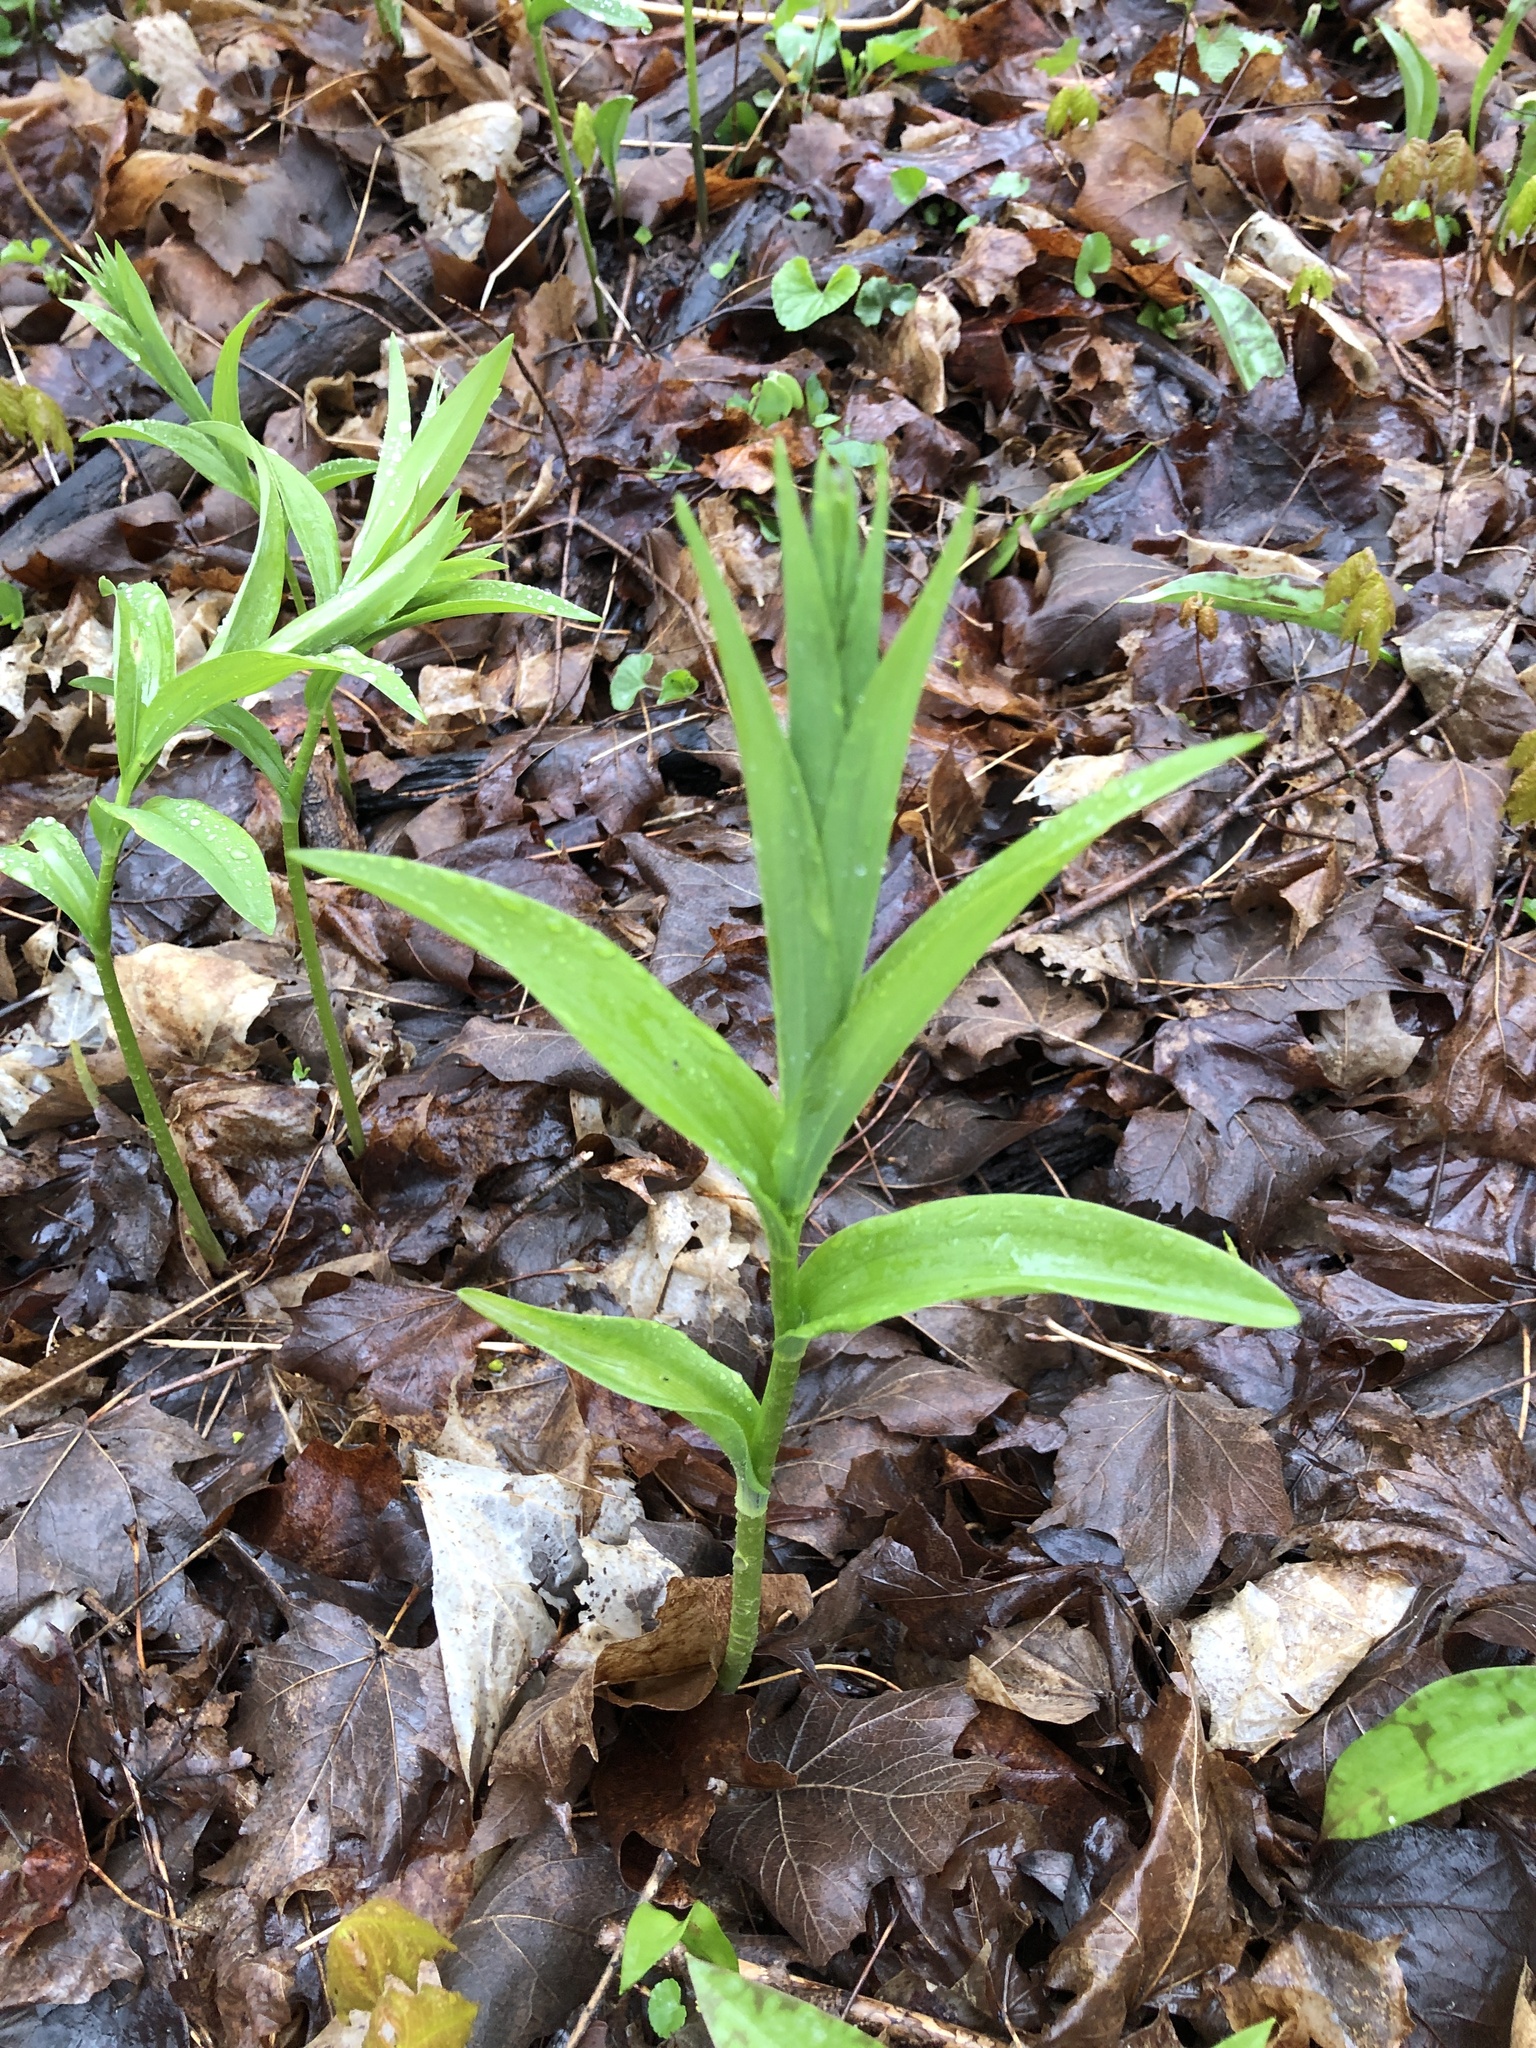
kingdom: Plantae
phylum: Tracheophyta
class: Liliopsida
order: Asparagales
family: Asparagaceae
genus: Maianthemum
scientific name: Maianthemum stellatum
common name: Little false solomon's seal
